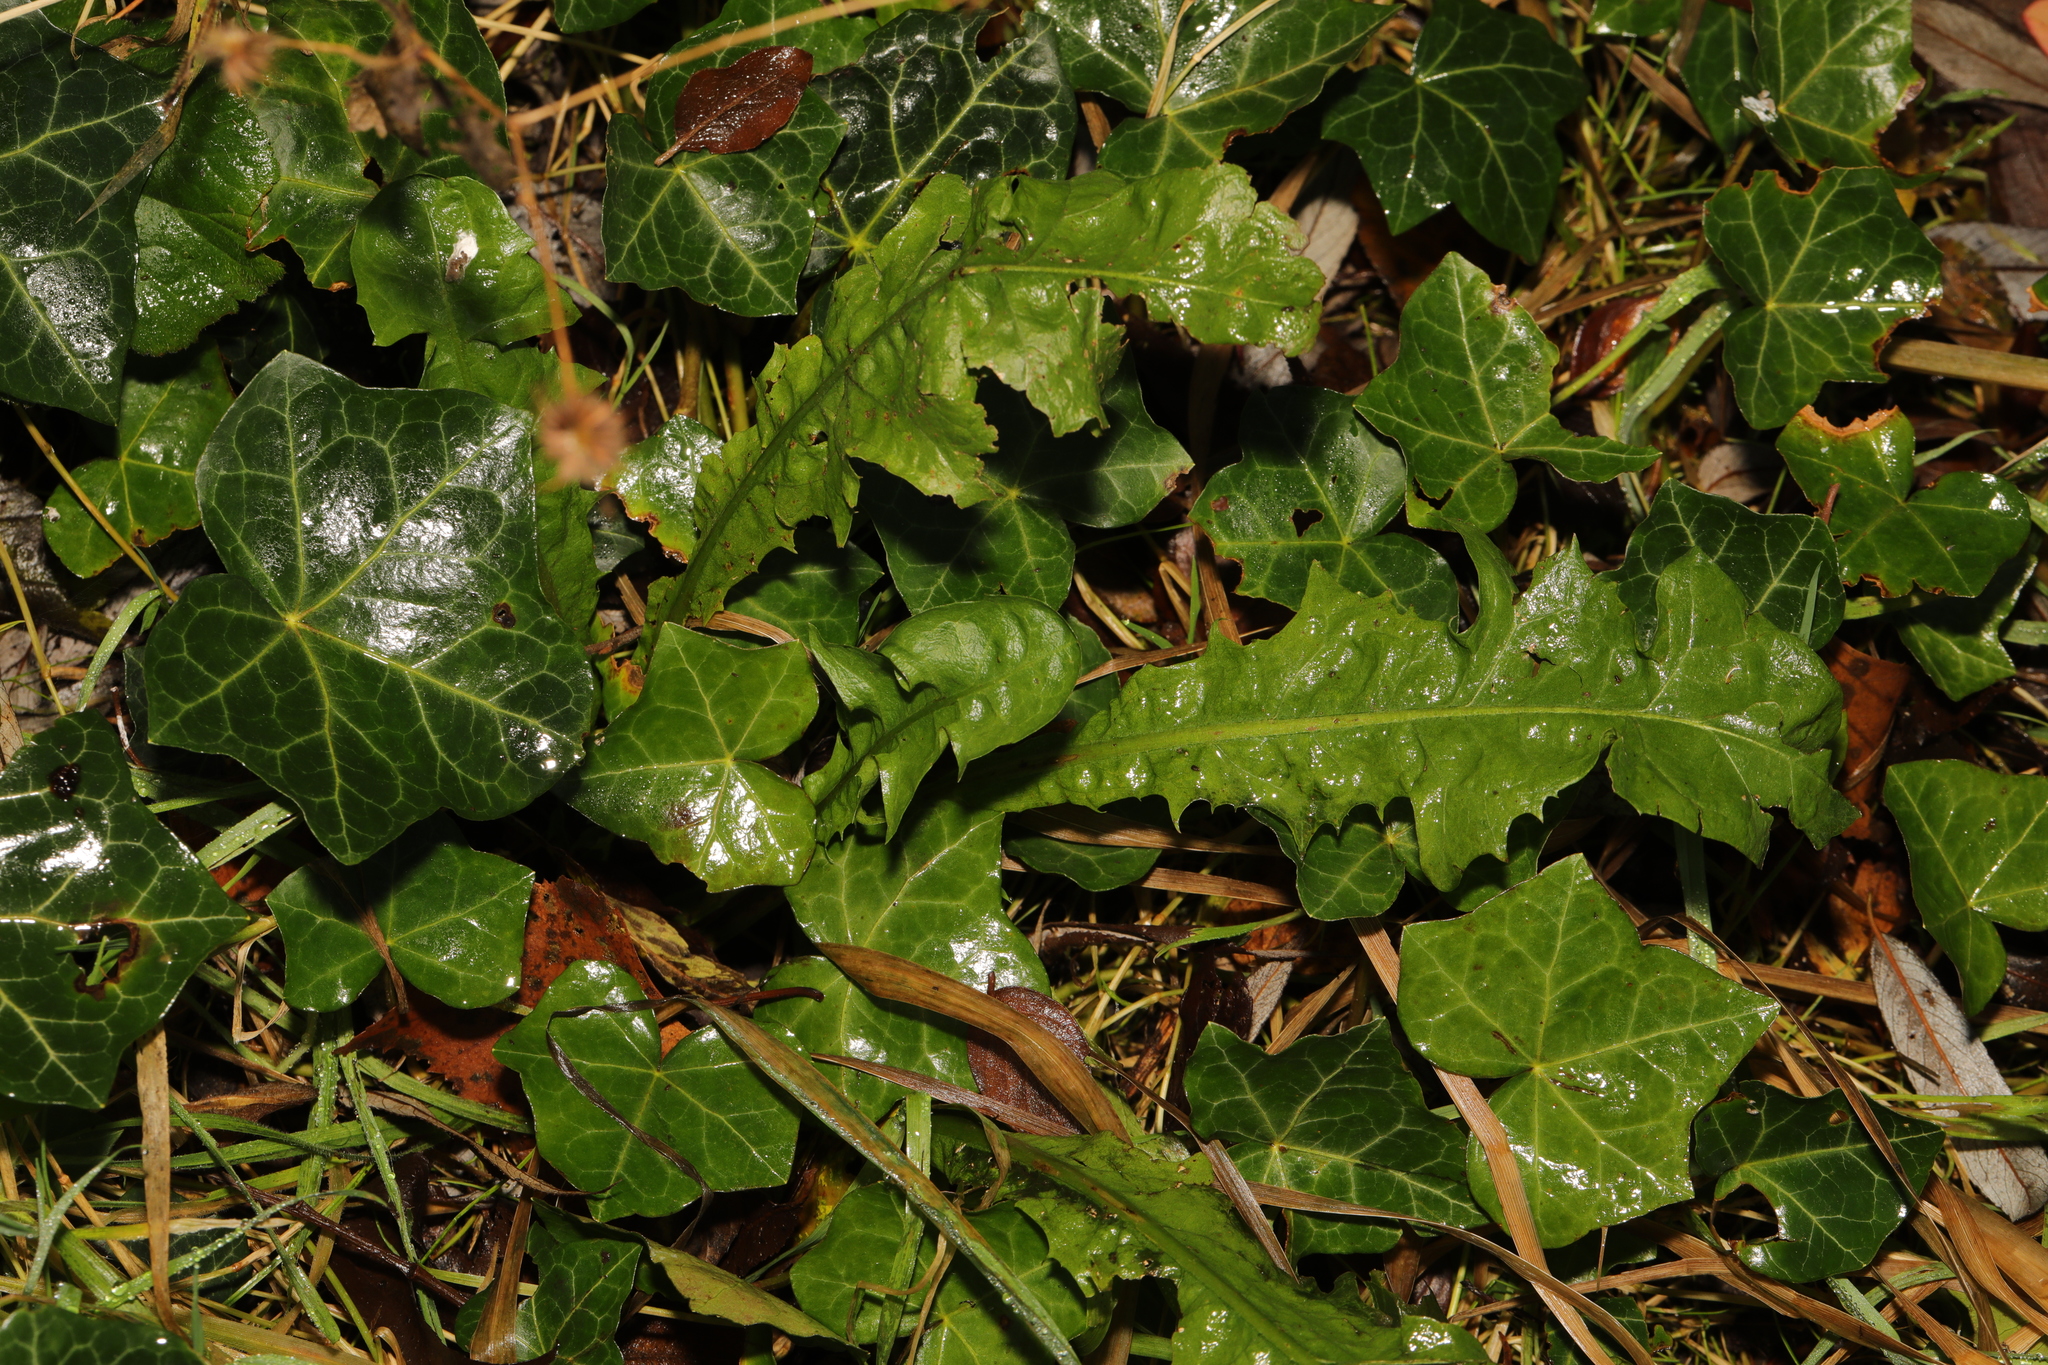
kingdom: Plantae
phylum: Tracheophyta
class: Magnoliopsida
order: Asterales
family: Asteraceae
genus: Taraxacum
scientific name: Taraxacum officinale
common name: Common dandelion
